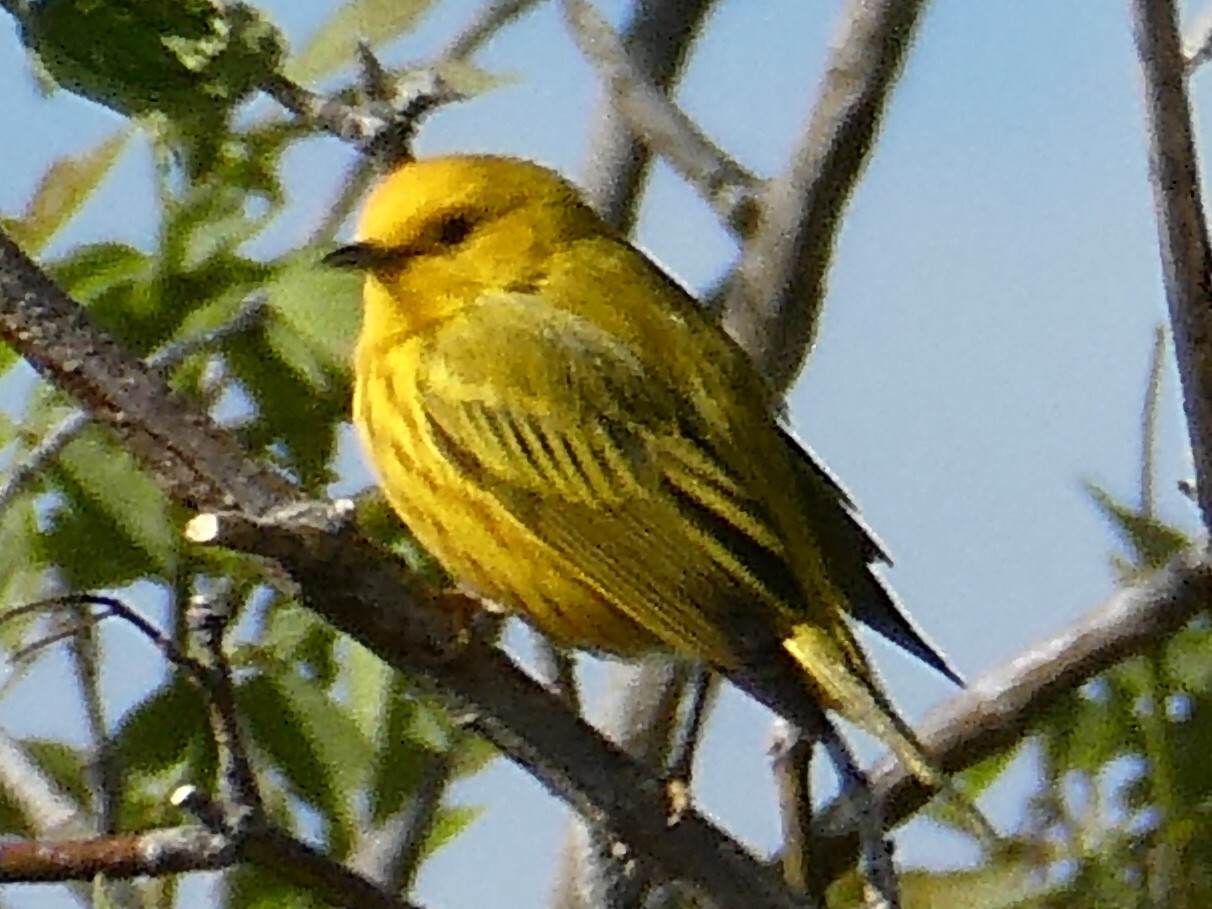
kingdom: Animalia
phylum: Chordata
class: Aves
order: Passeriformes
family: Parulidae
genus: Setophaga
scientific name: Setophaga petechia
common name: Yellow warbler
